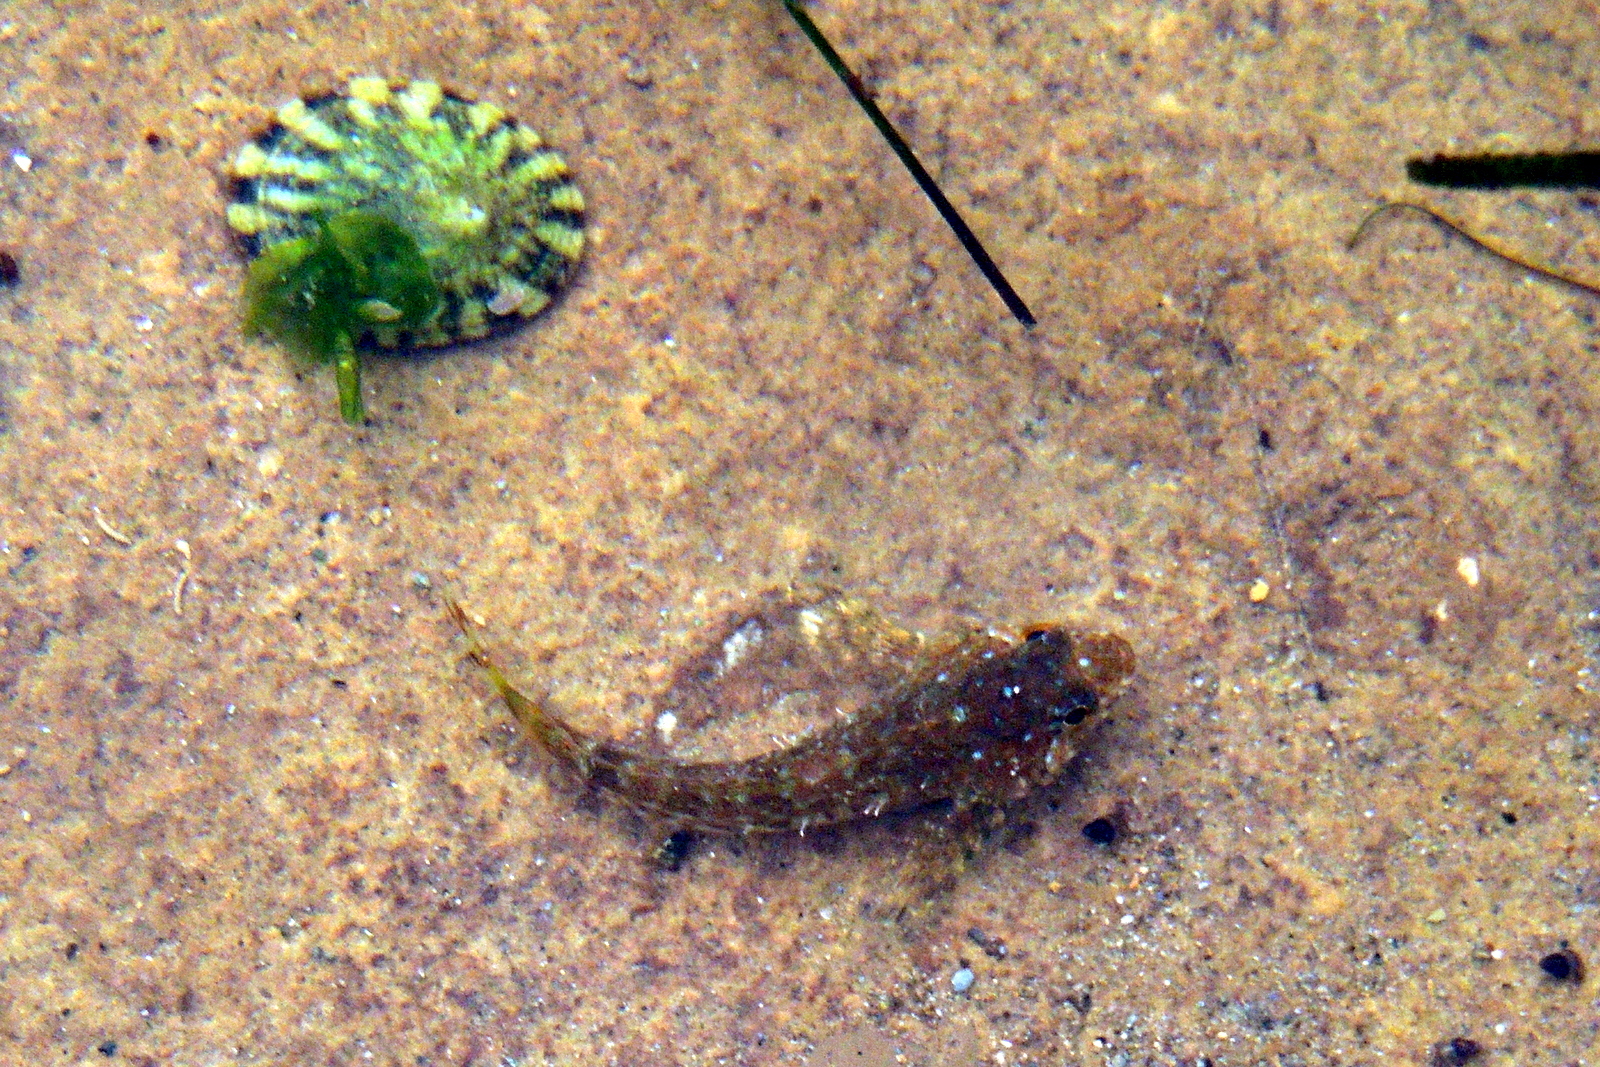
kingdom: Animalia
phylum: Chordata
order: Scorpaeniformes
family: Cottidae
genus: Clinocottus
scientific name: Clinocottus analis
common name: Woolly sculpin
